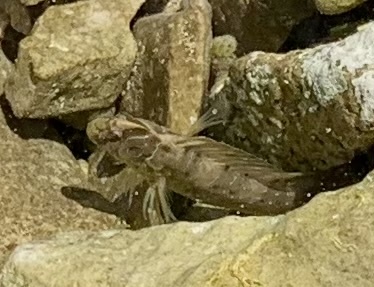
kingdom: Animalia
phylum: Chordata
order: Perciformes
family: Blenniidae
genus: Salaria
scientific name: Salaria pavo
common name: Peacock blenny
